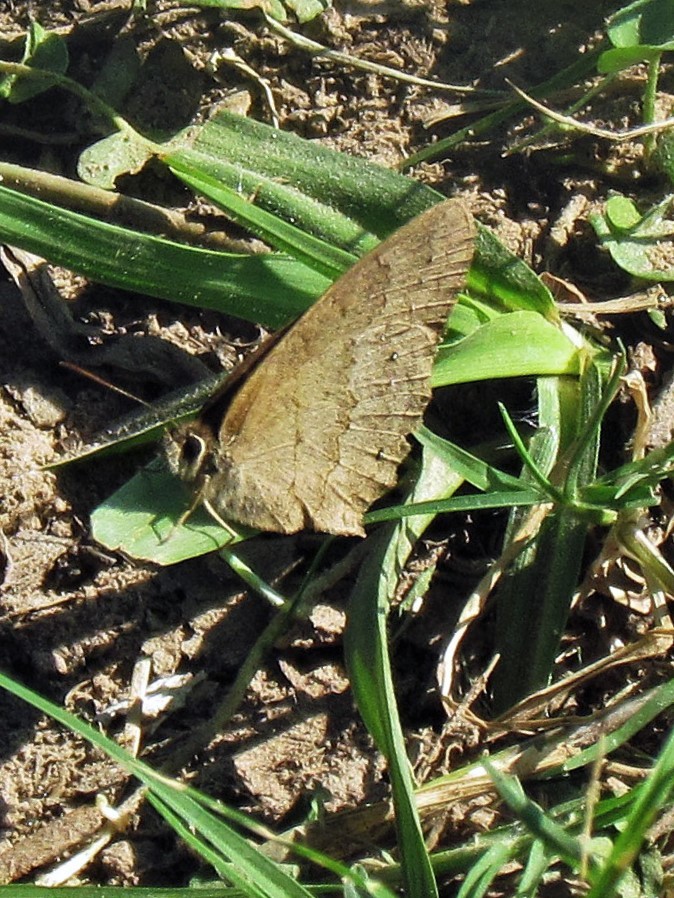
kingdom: Animalia
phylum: Arthropoda
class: Insecta
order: Lepidoptera
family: Nymphalidae
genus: Euptychia
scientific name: Euptychia Cissia eous
